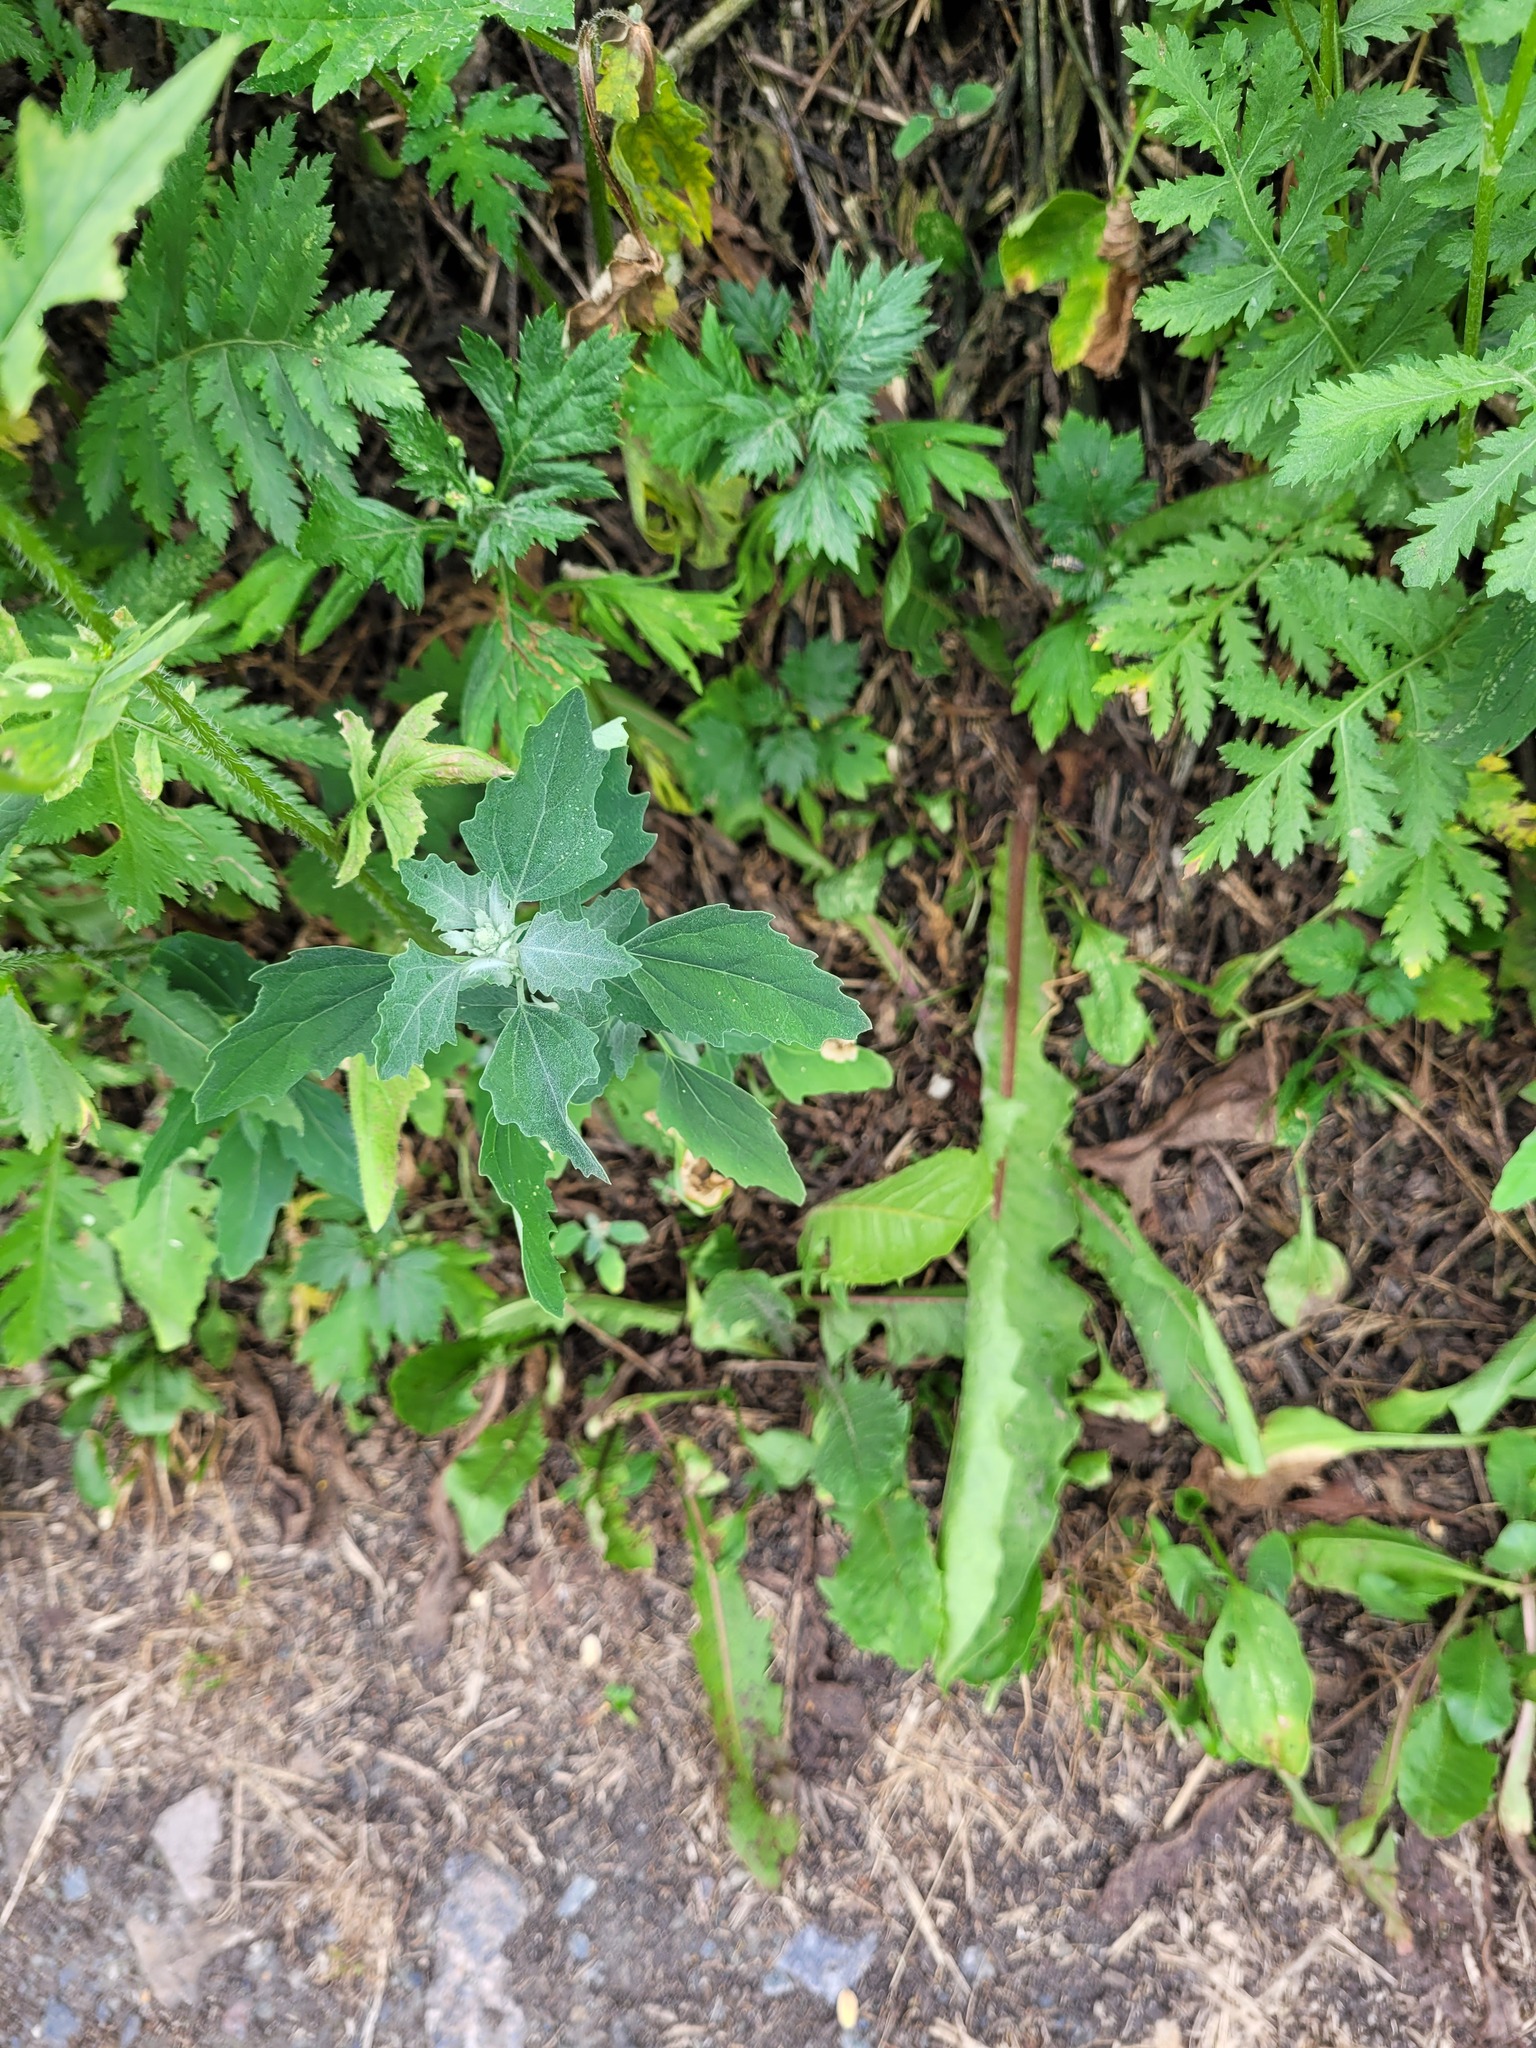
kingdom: Plantae
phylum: Tracheophyta
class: Magnoliopsida
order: Caryophyllales
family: Amaranthaceae
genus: Chenopodium
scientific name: Chenopodium album
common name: Fat-hen
